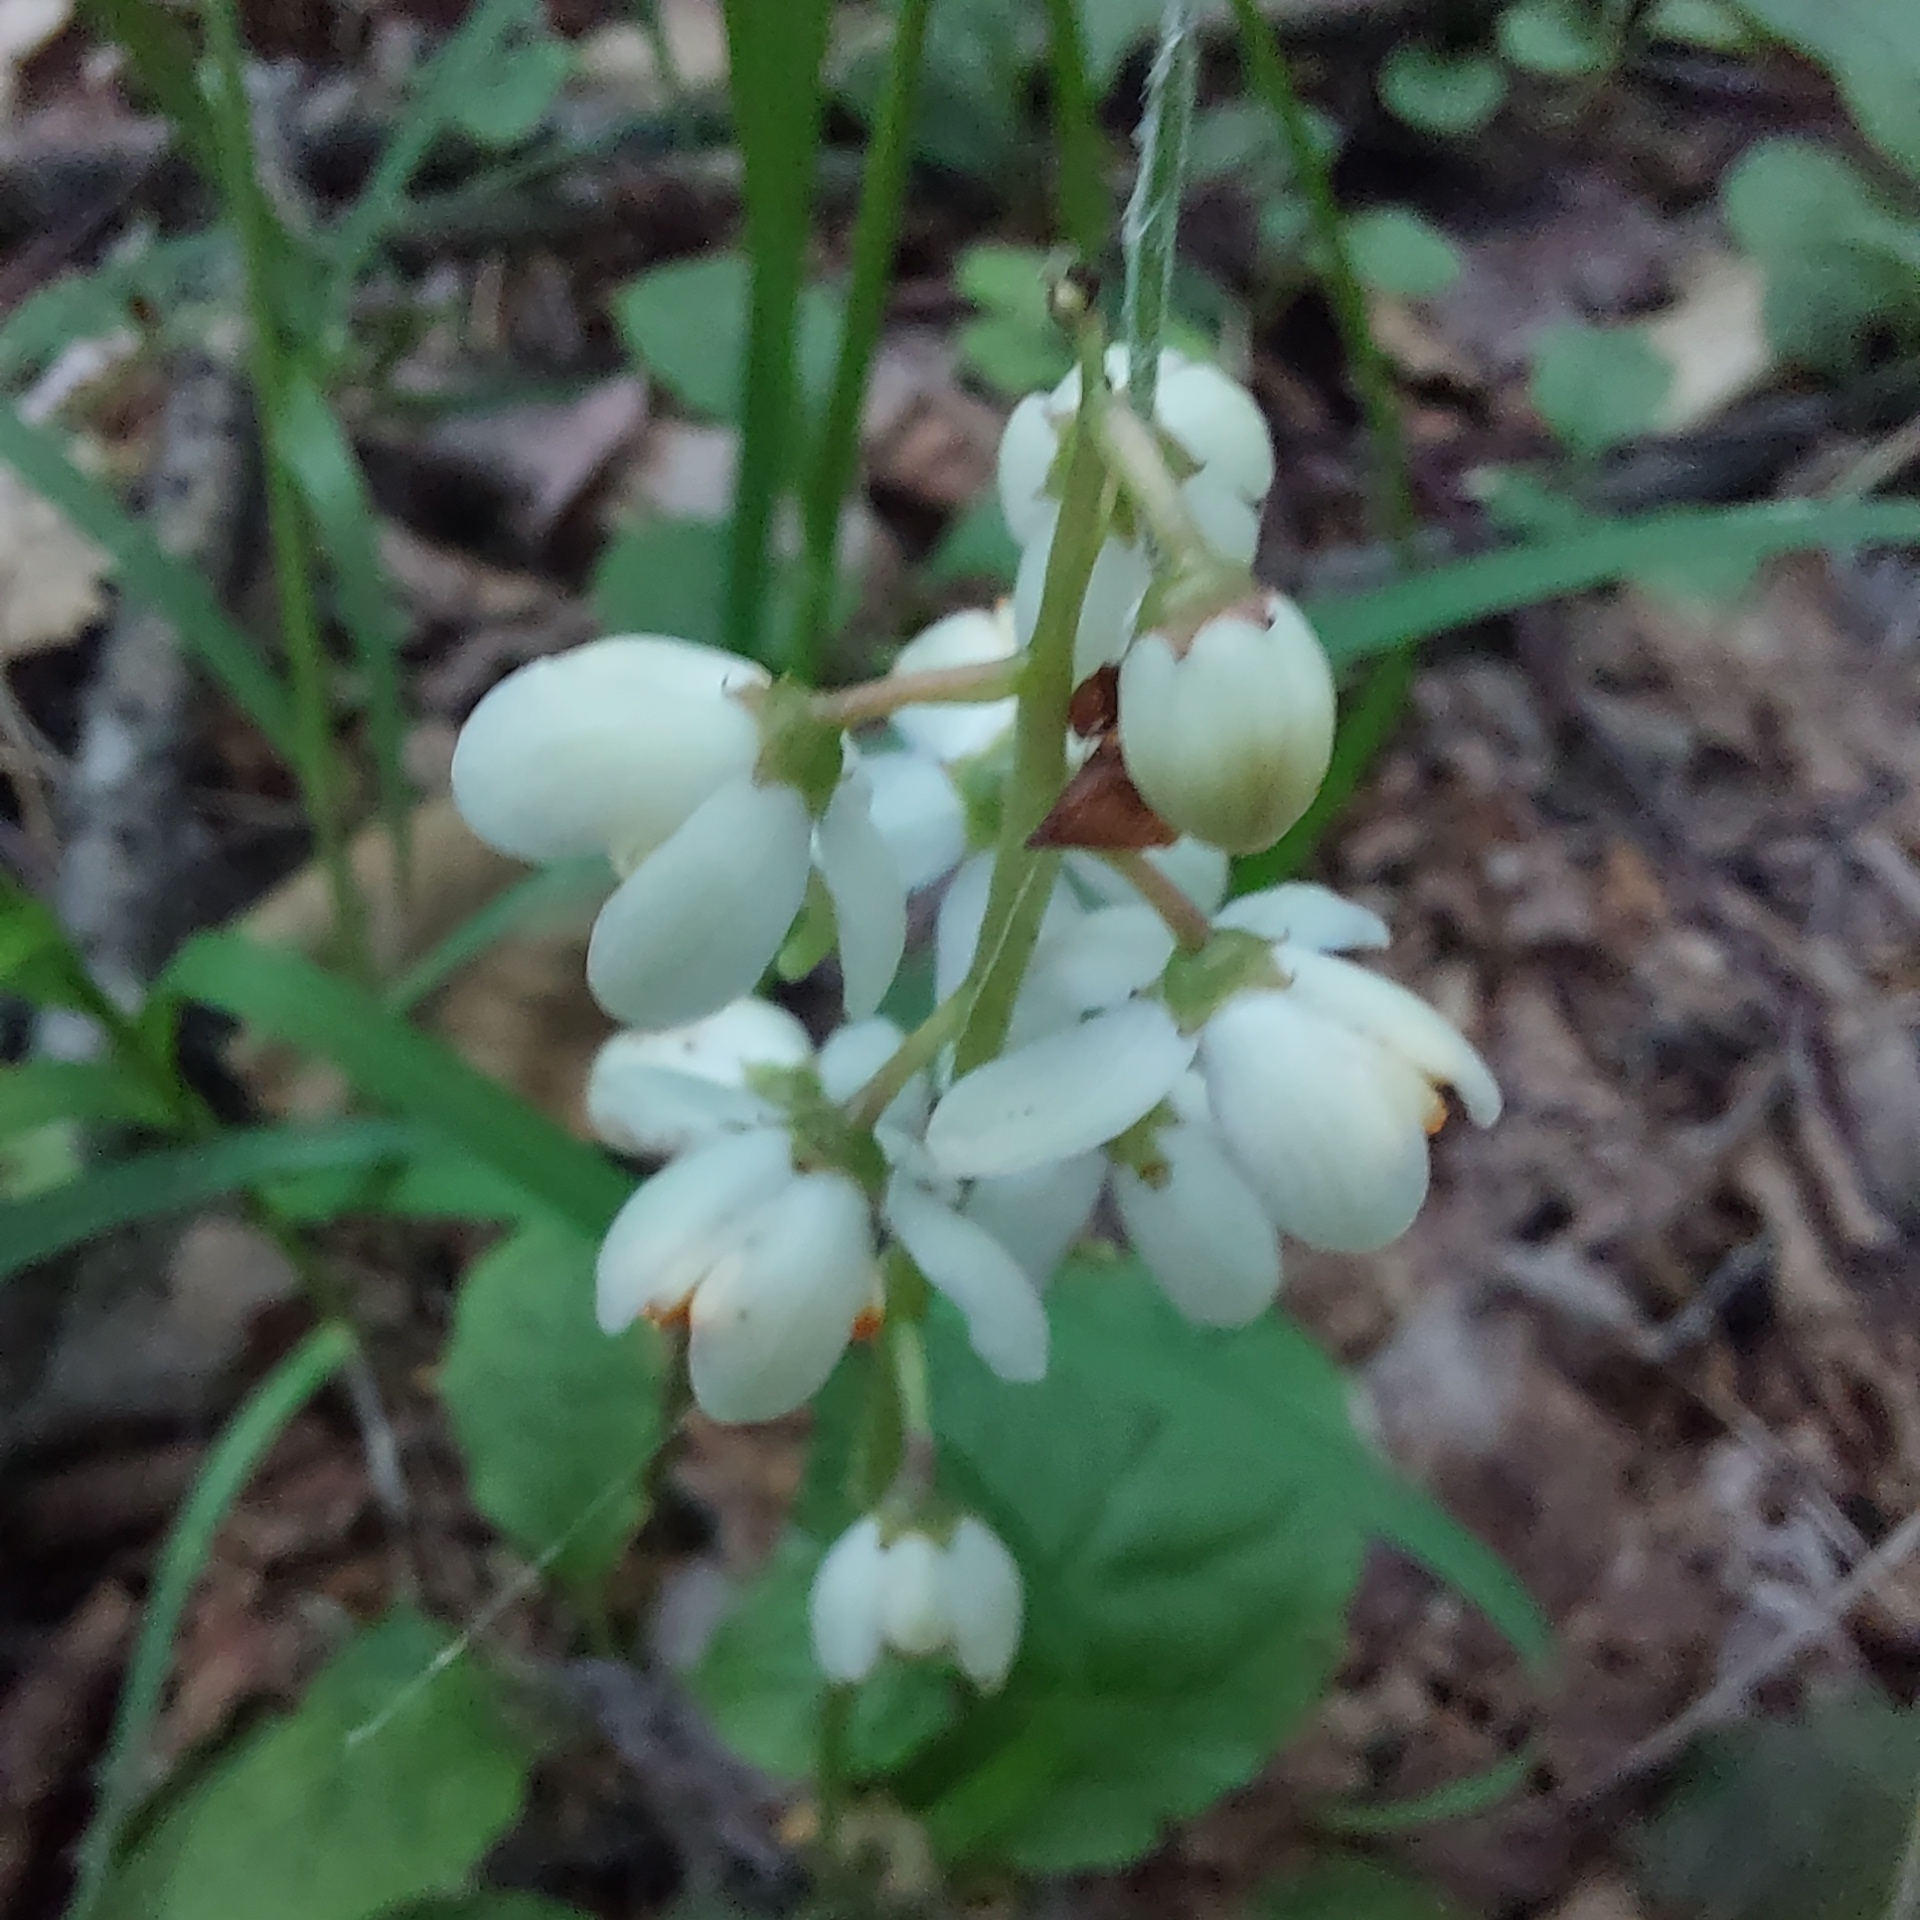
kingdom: Plantae
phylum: Tracheophyta
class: Magnoliopsida
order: Ericales
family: Ericaceae
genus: Pyrola
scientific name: Pyrola elliptica
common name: Shinleaf
